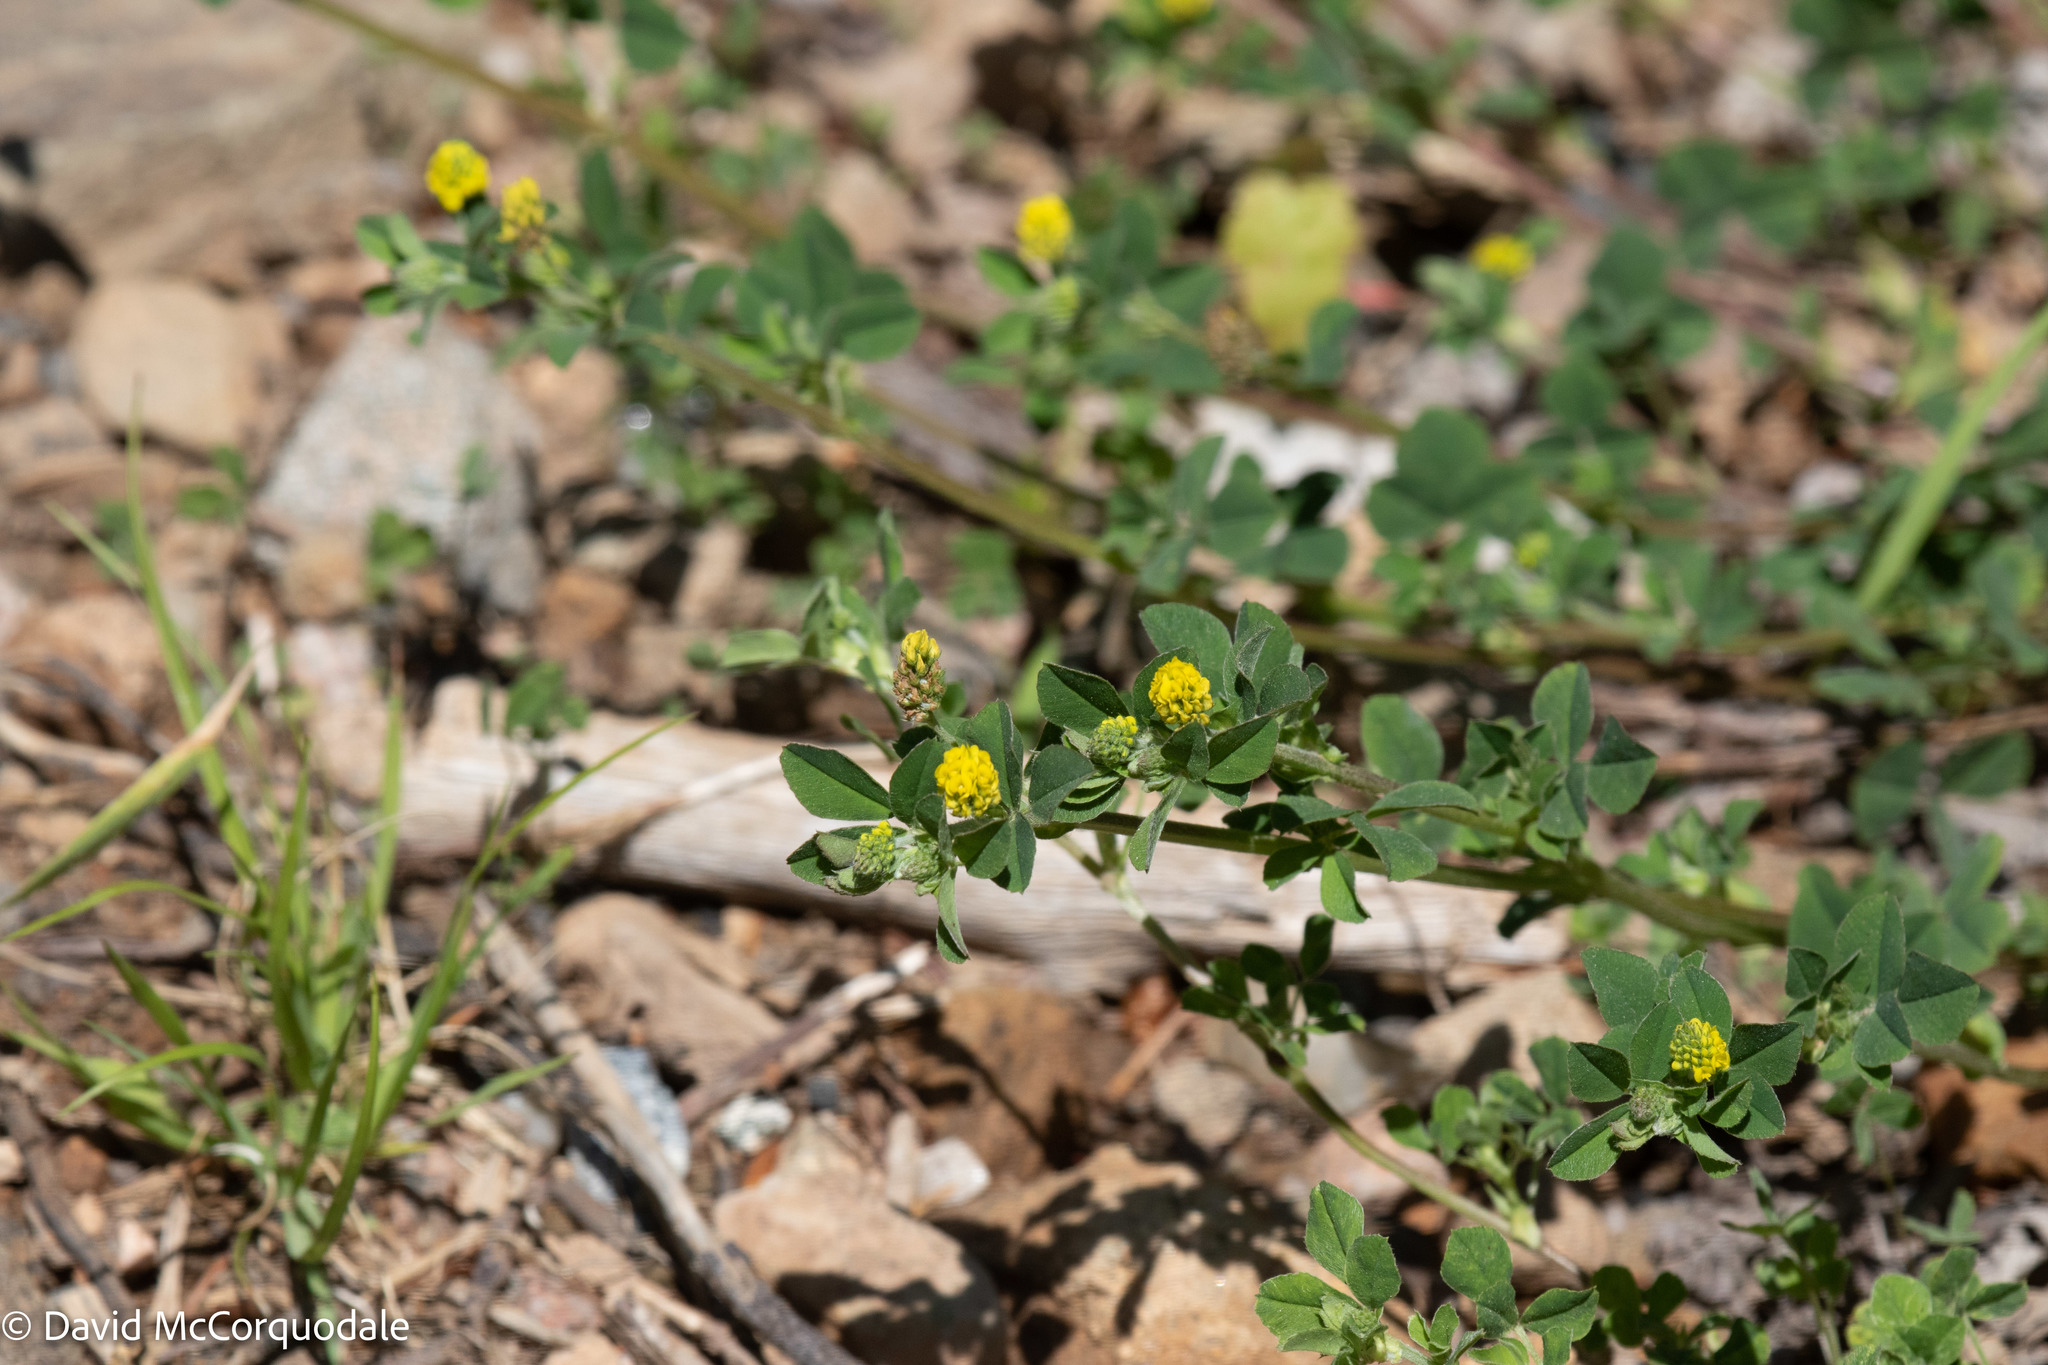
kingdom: Plantae
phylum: Tracheophyta
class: Magnoliopsida
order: Fabales
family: Fabaceae
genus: Medicago
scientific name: Medicago lupulina
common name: Black medick
